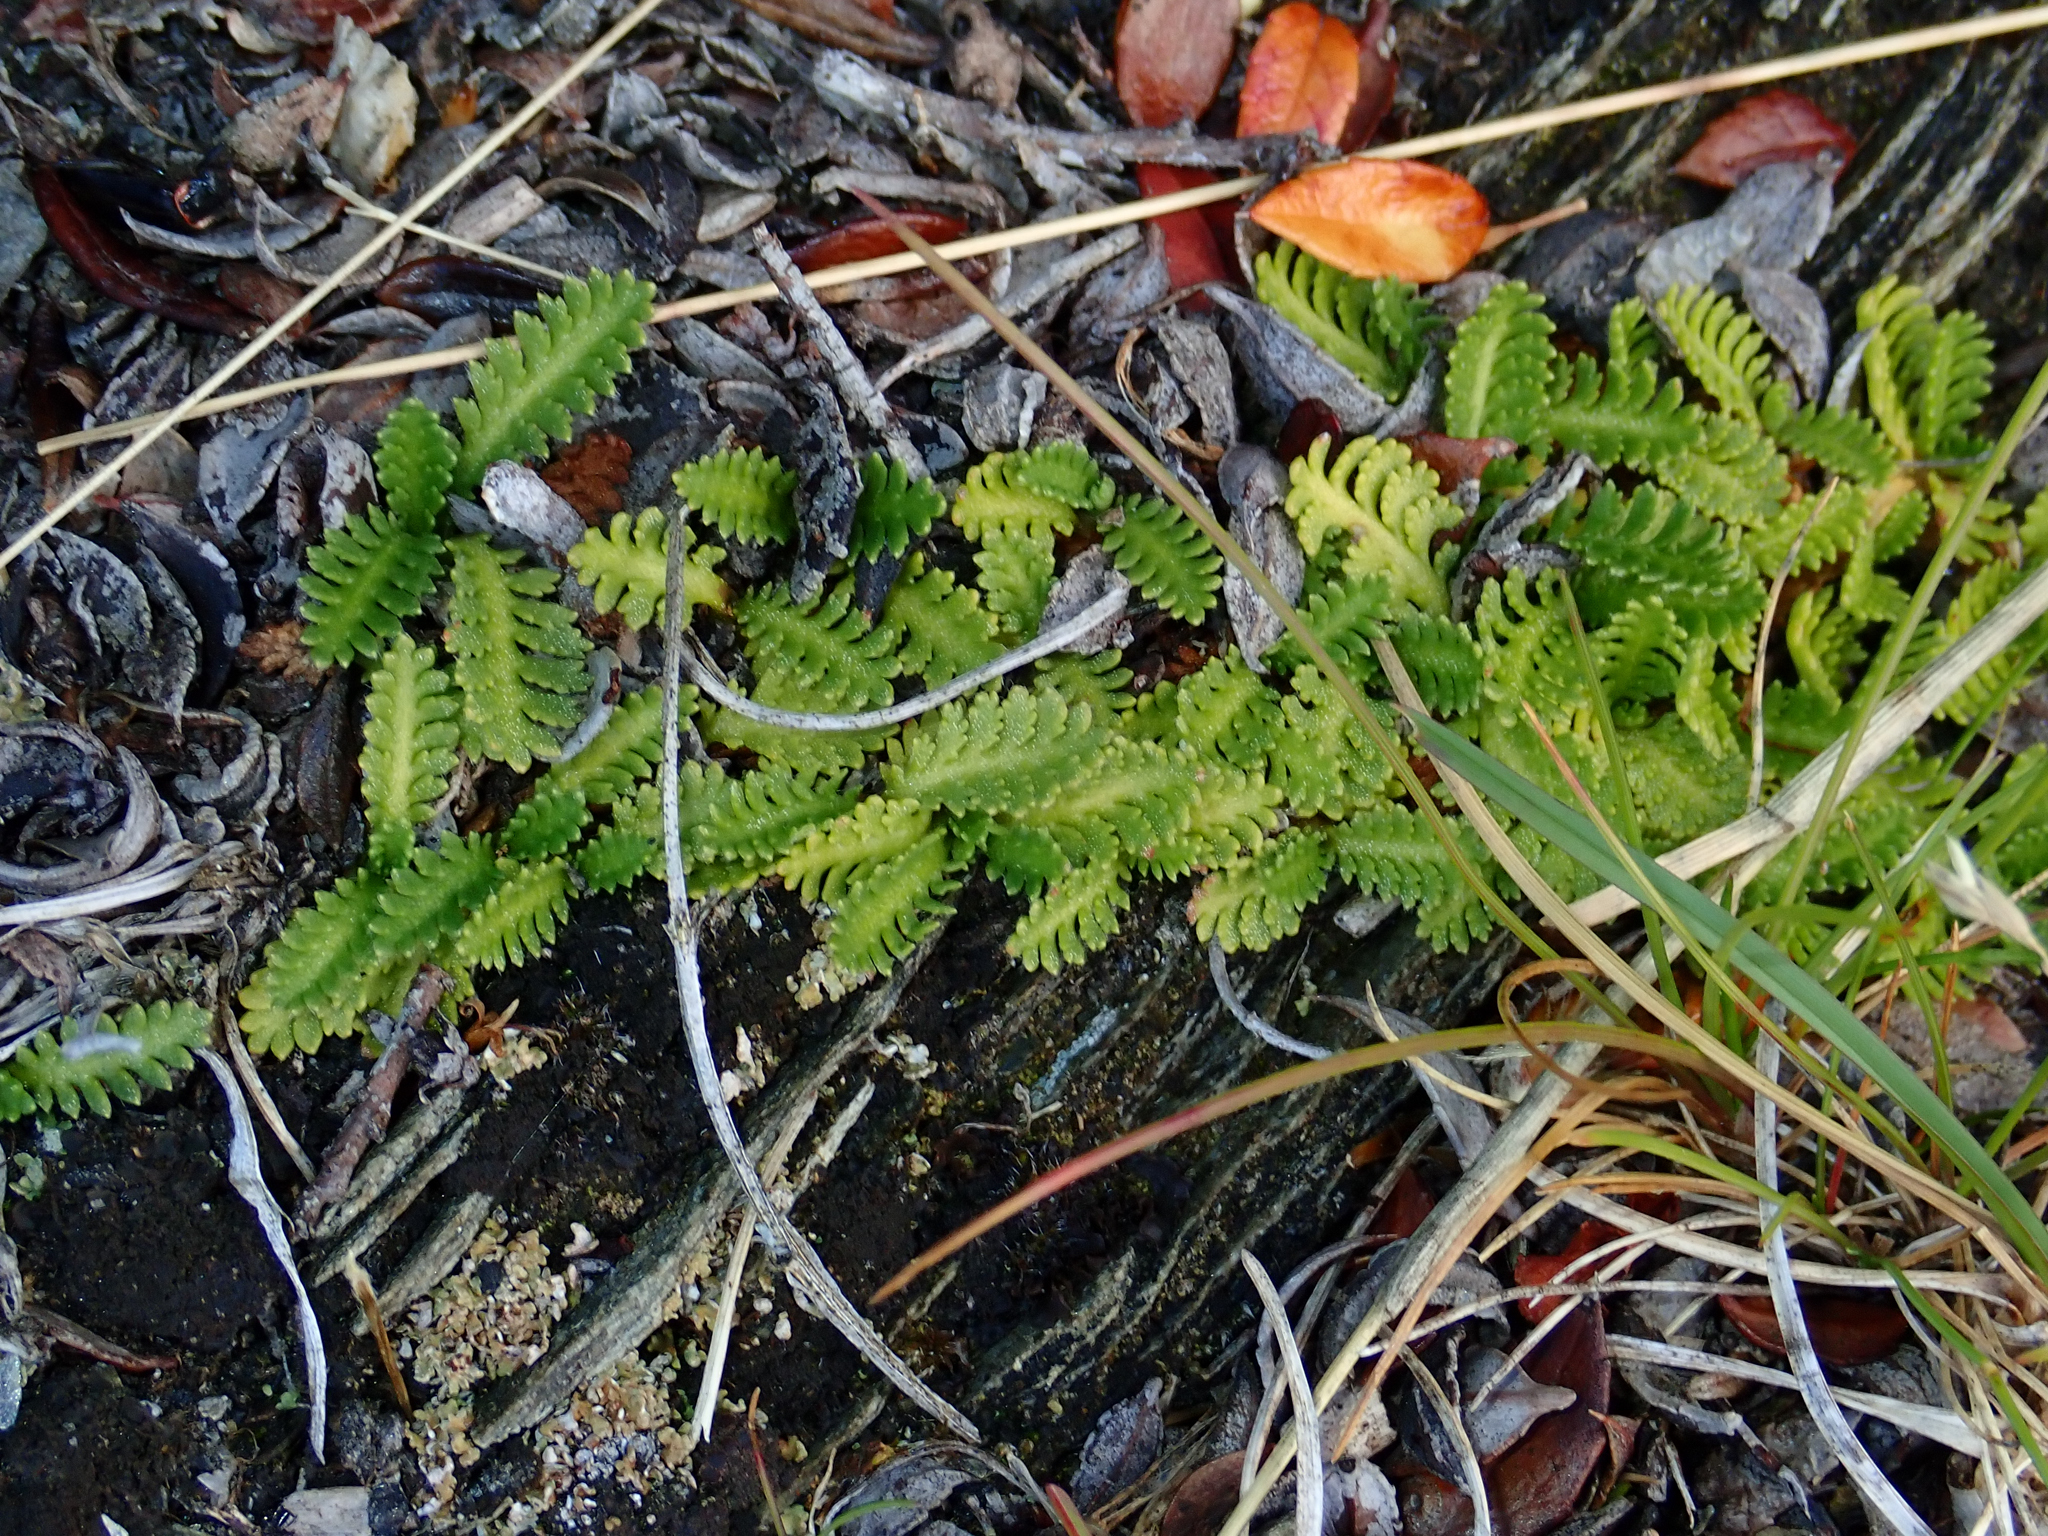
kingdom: Plantae
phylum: Tracheophyta
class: Magnoliopsida
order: Asterales
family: Asteraceae
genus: Leptinella
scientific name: Leptinella scariosa
